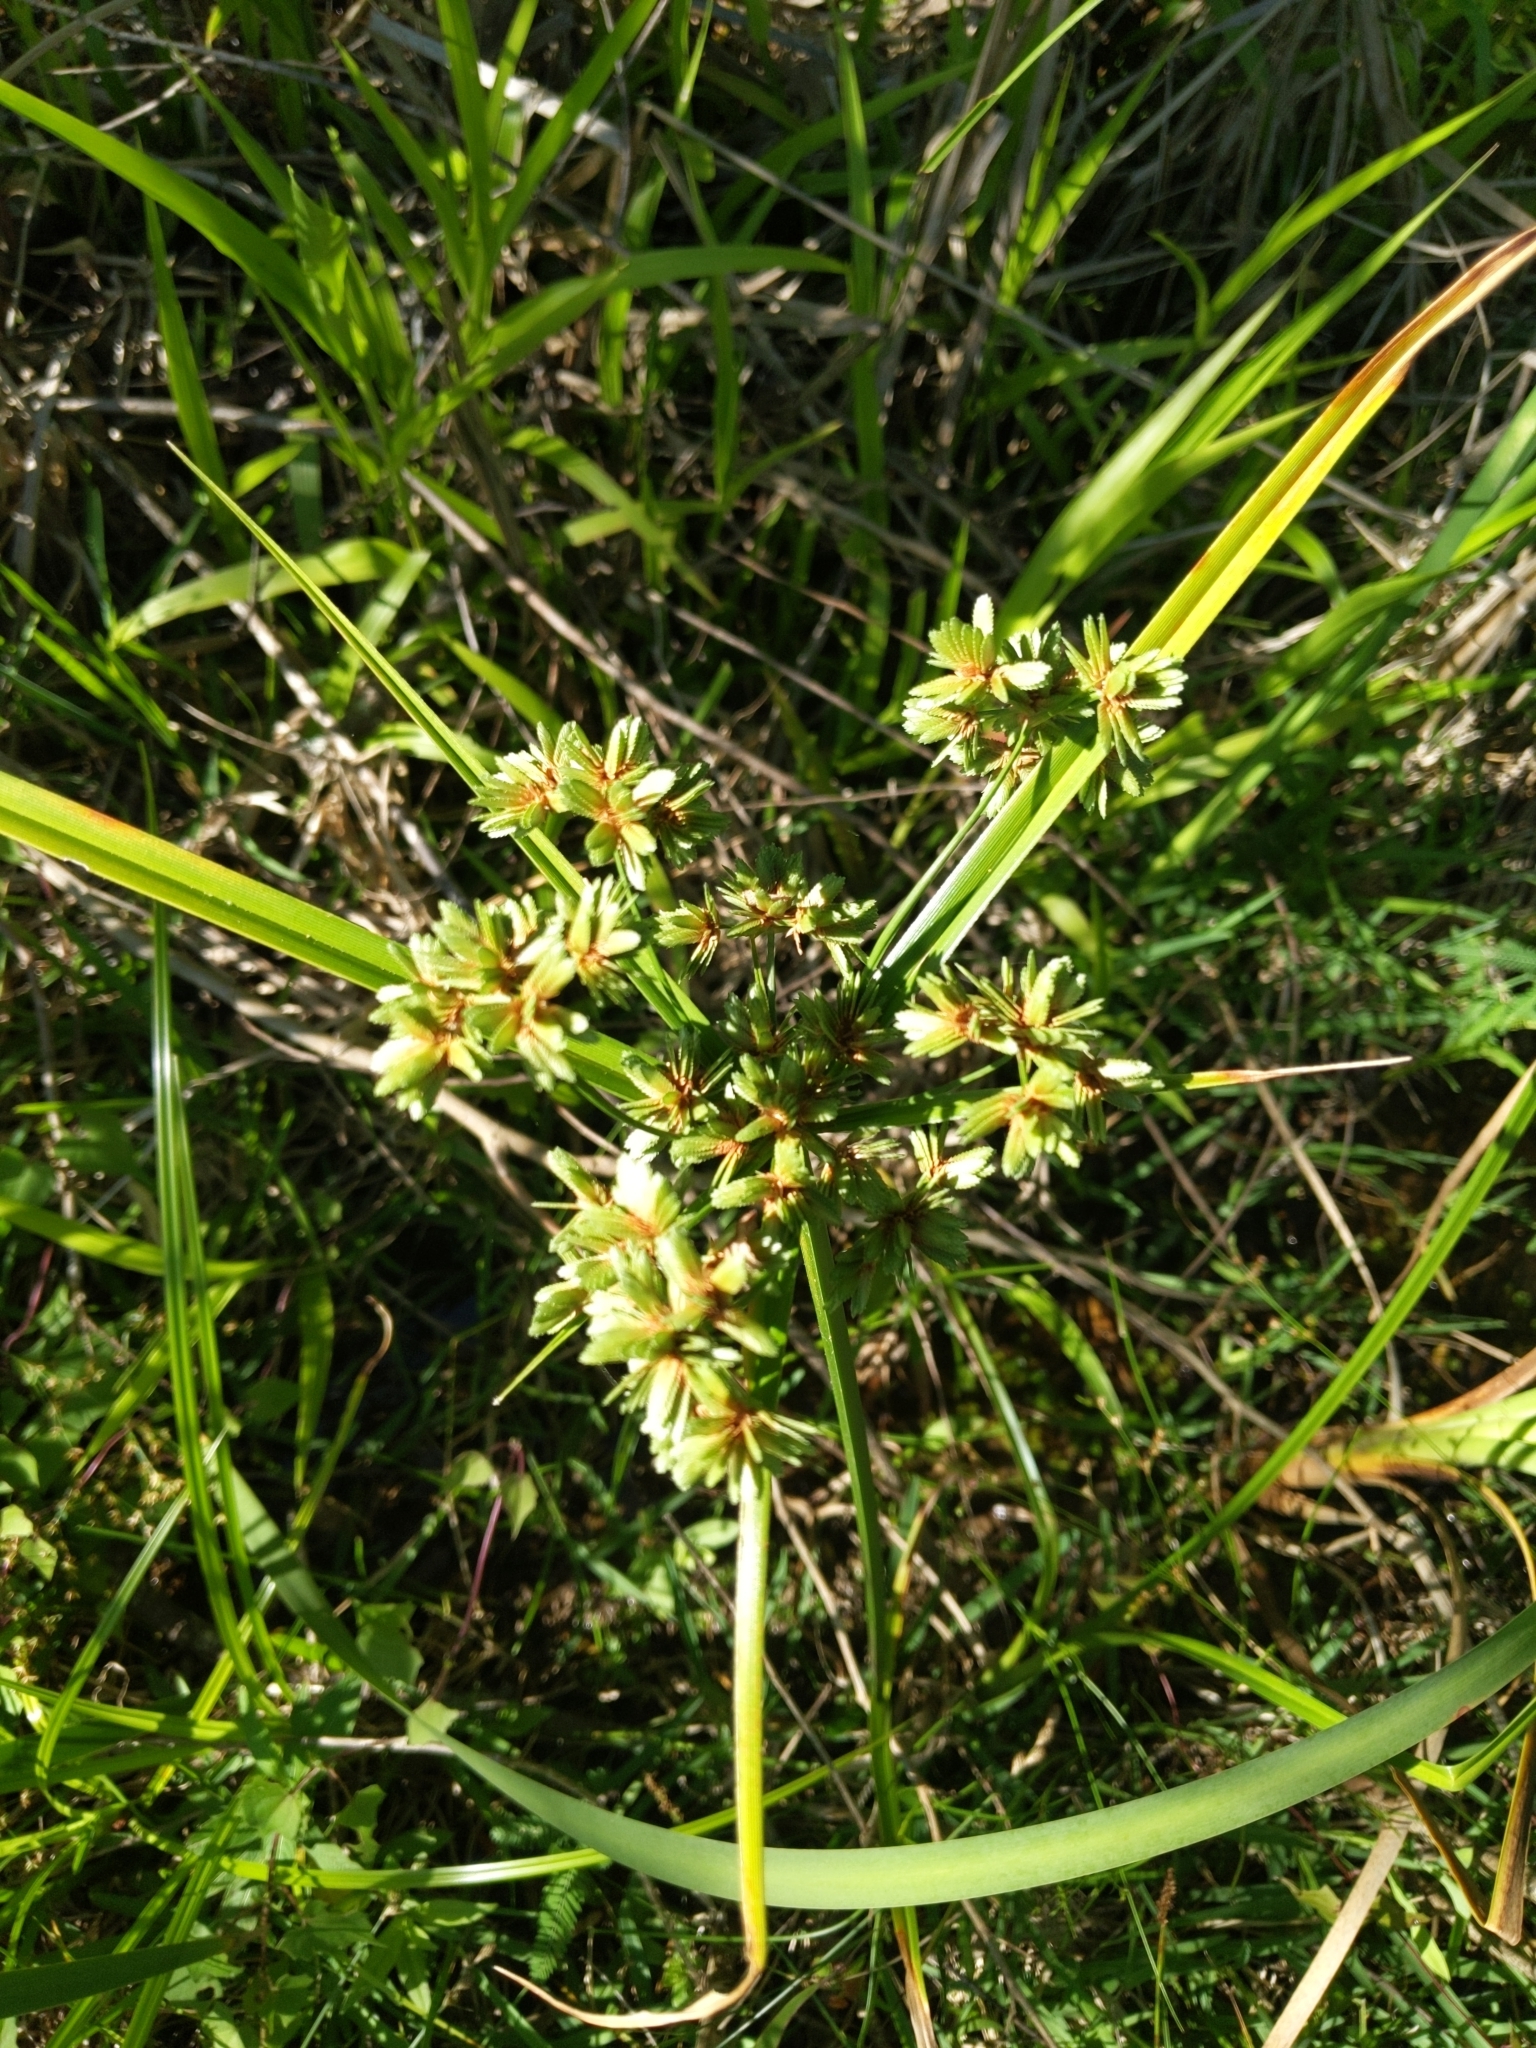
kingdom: Plantae
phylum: Tracheophyta
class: Liliopsida
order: Poales
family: Cyperaceae
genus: Cyperus
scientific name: Cyperus virens
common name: Green flatsedge
